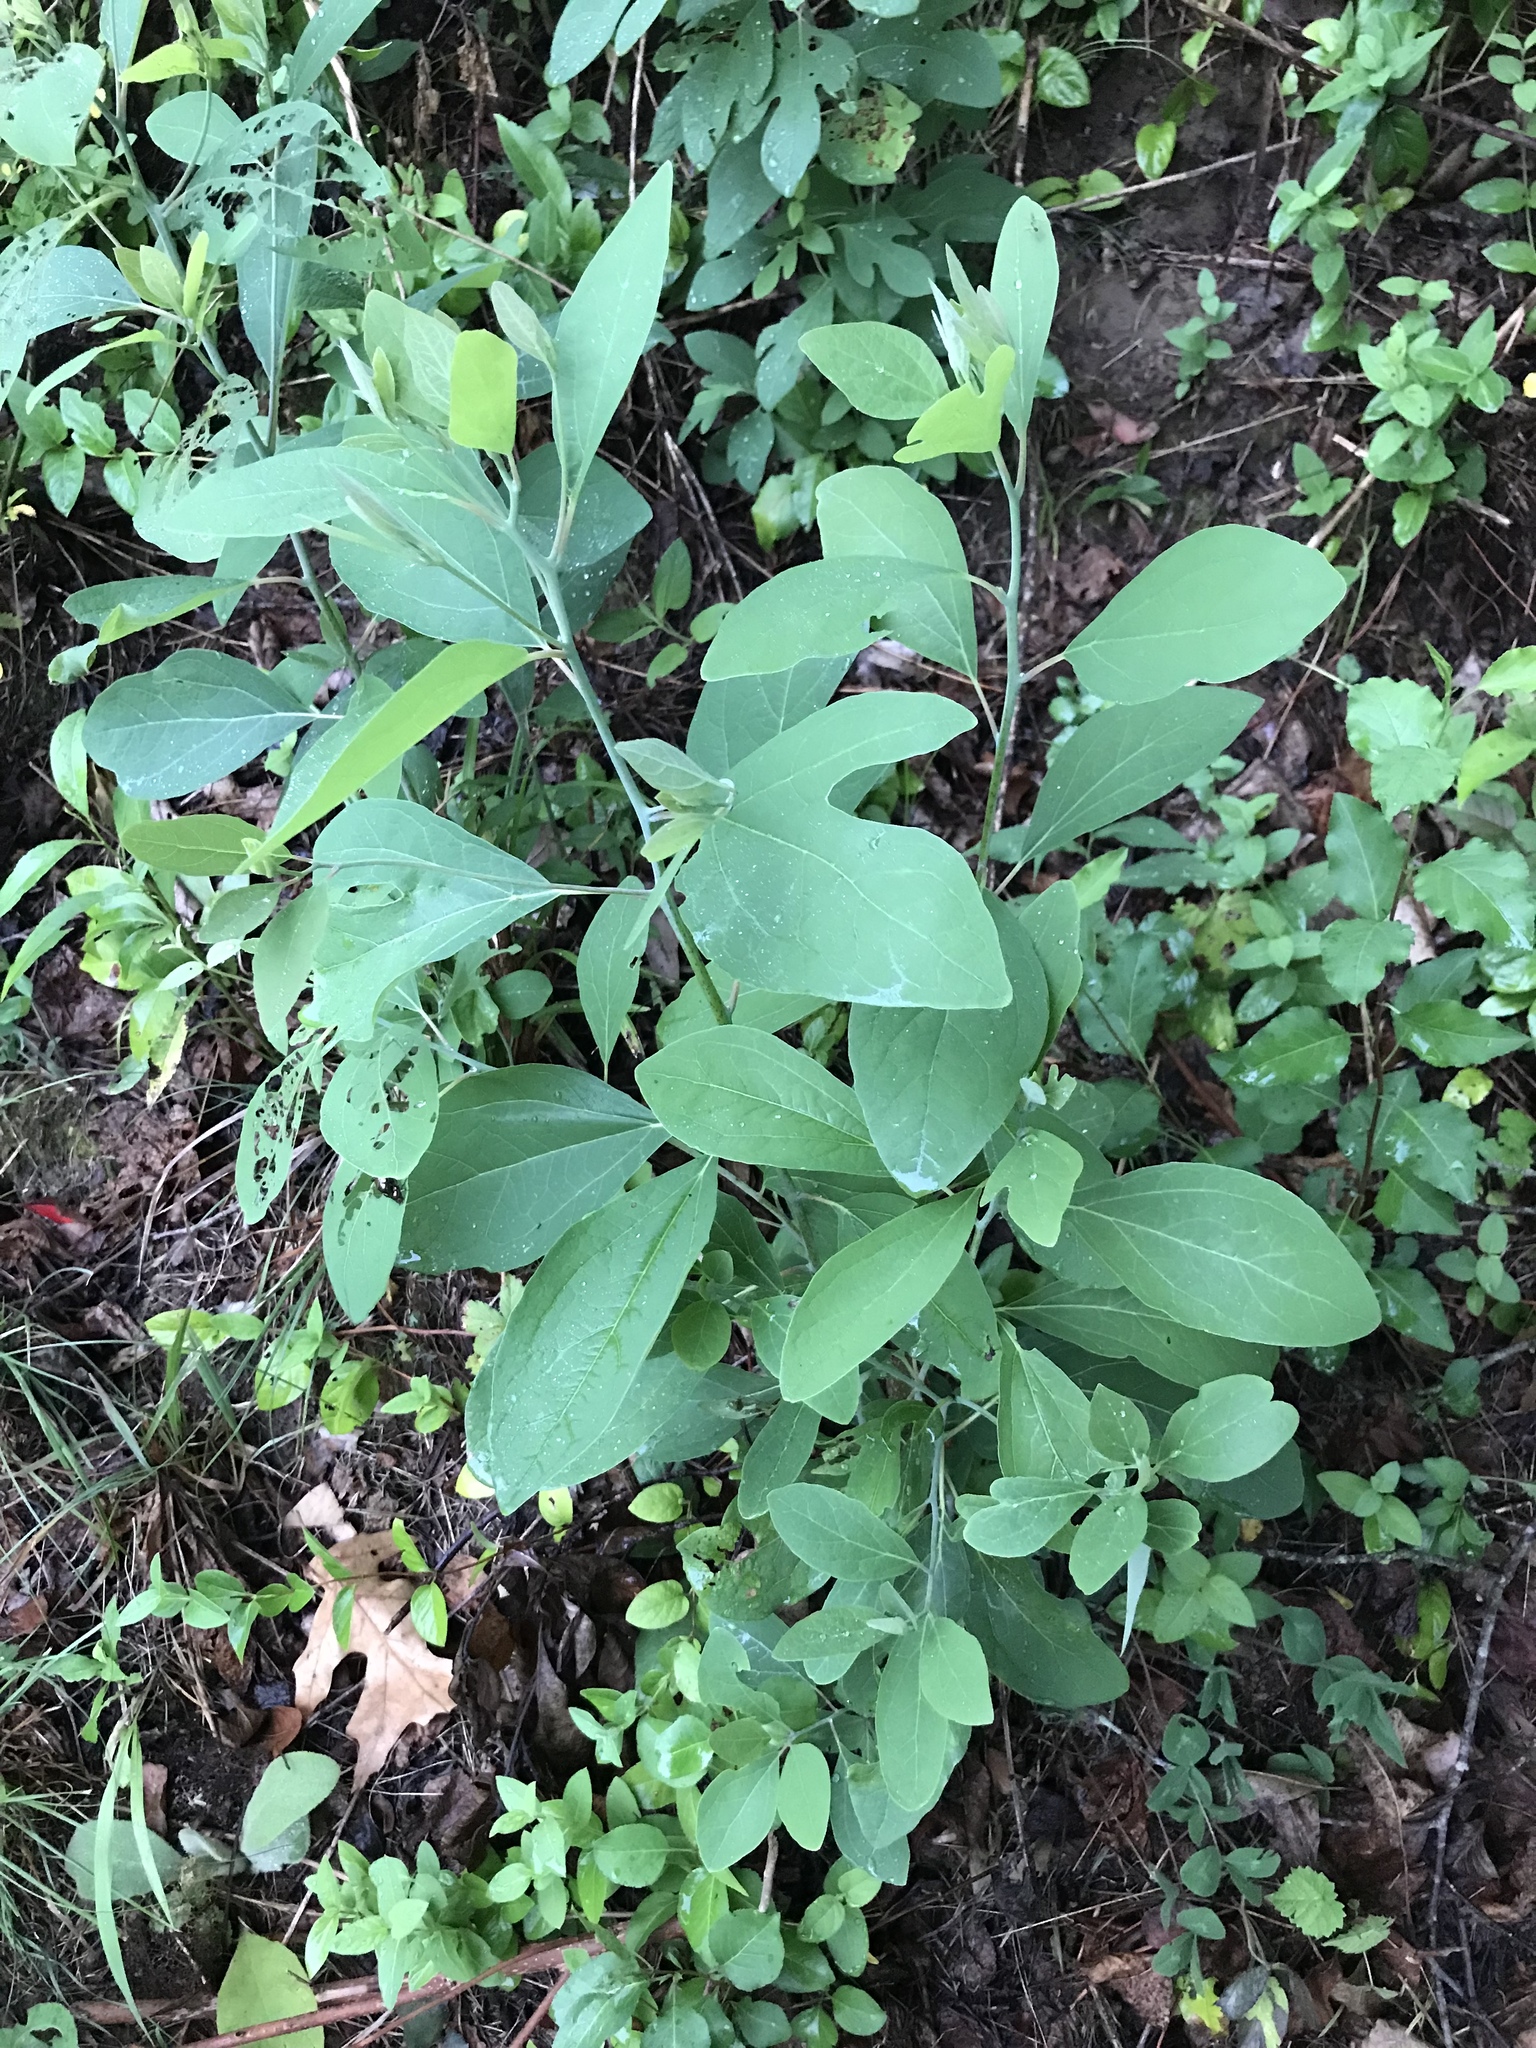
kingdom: Plantae
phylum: Tracheophyta
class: Magnoliopsida
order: Laurales
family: Lauraceae
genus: Sassafras
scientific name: Sassafras albidum
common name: Sassafras
